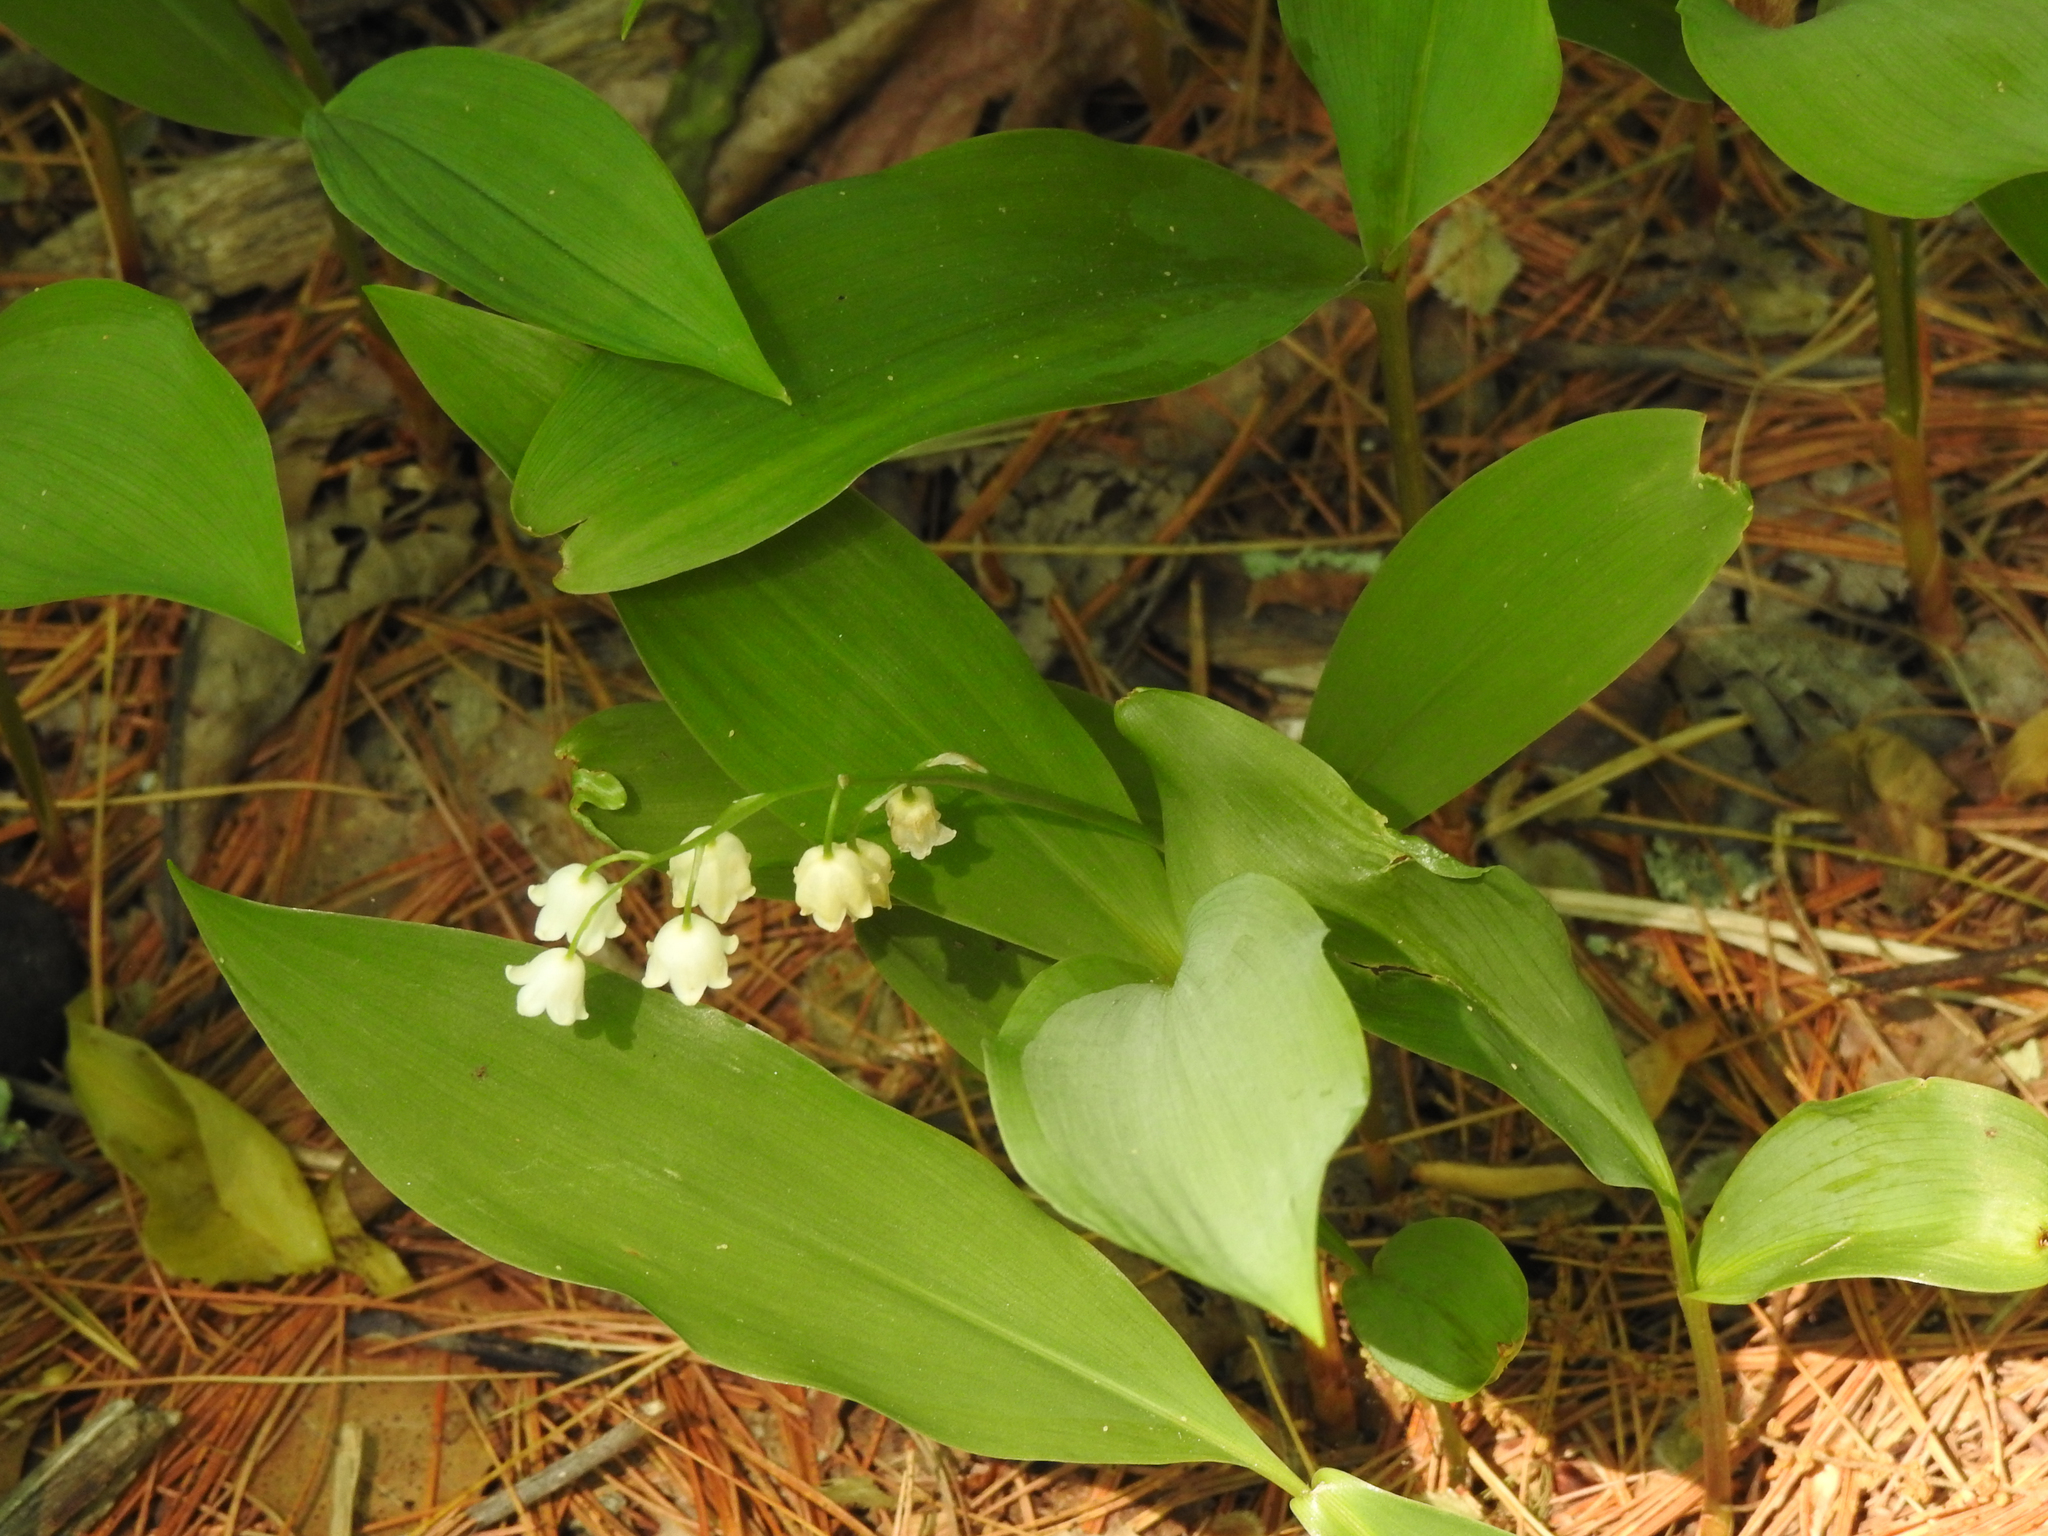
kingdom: Plantae
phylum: Tracheophyta
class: Liliopsida
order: Asparagales
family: Asparagaceae
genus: Convallaria
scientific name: Convallaria majalis
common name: Lily-of-the-valley
